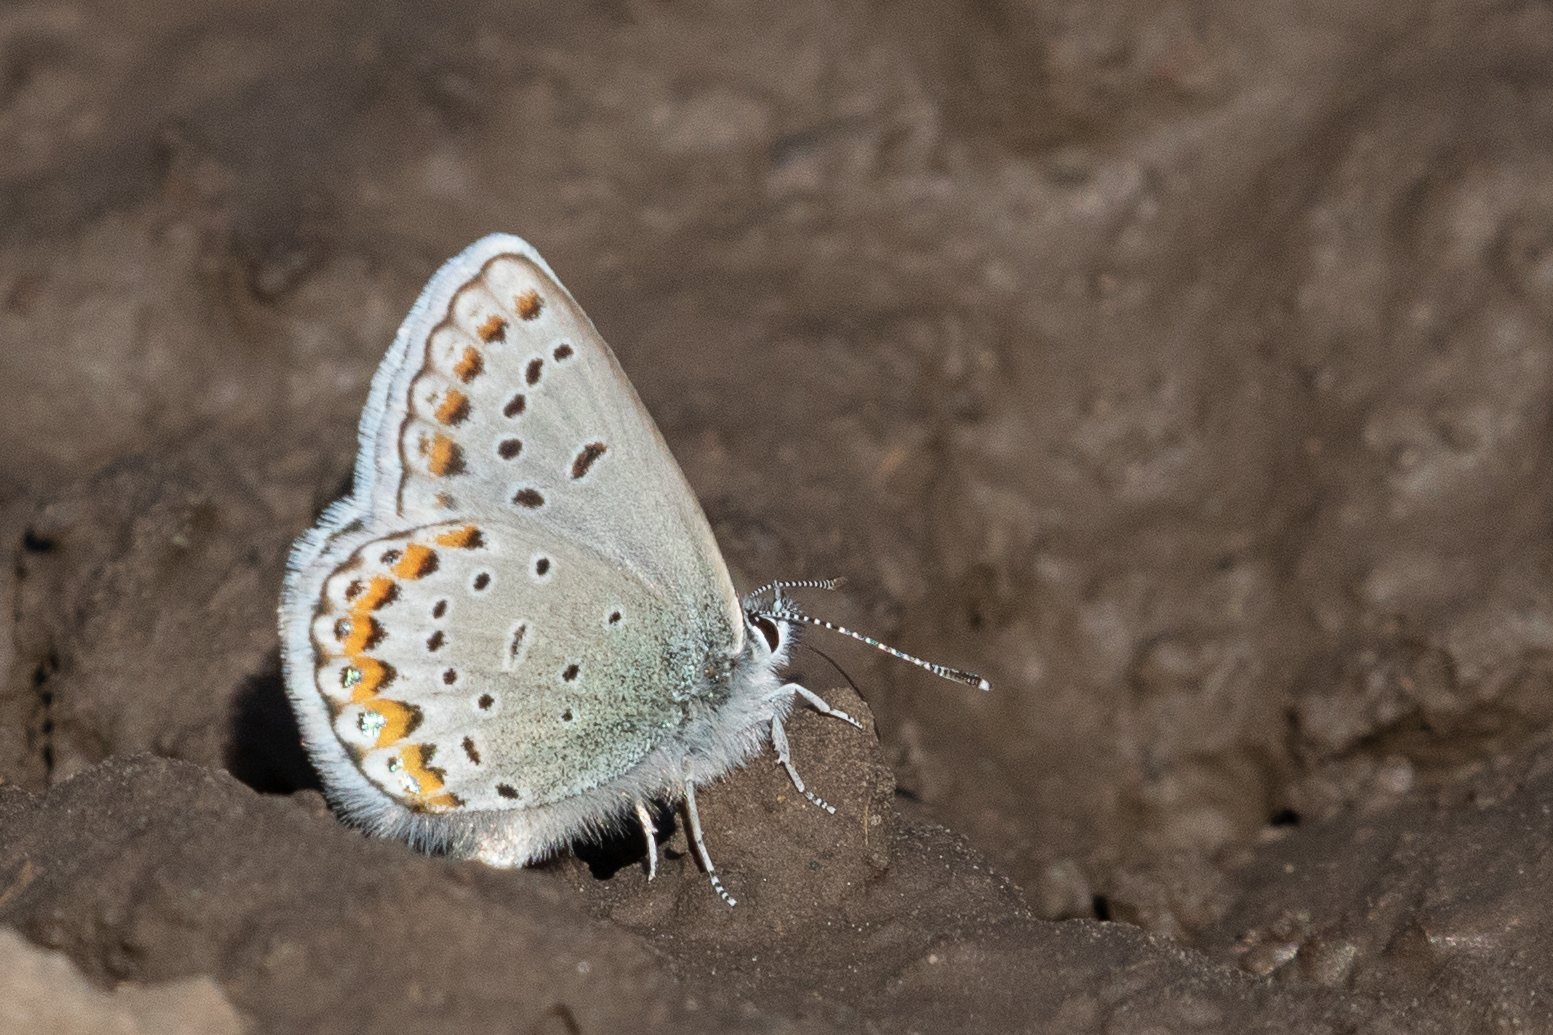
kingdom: Animalia
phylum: Arthropoda
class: Insecta
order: Lepidoptera
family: Lycaenidae
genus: Lycaeides
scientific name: Lycaeides idas
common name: Northern blue
